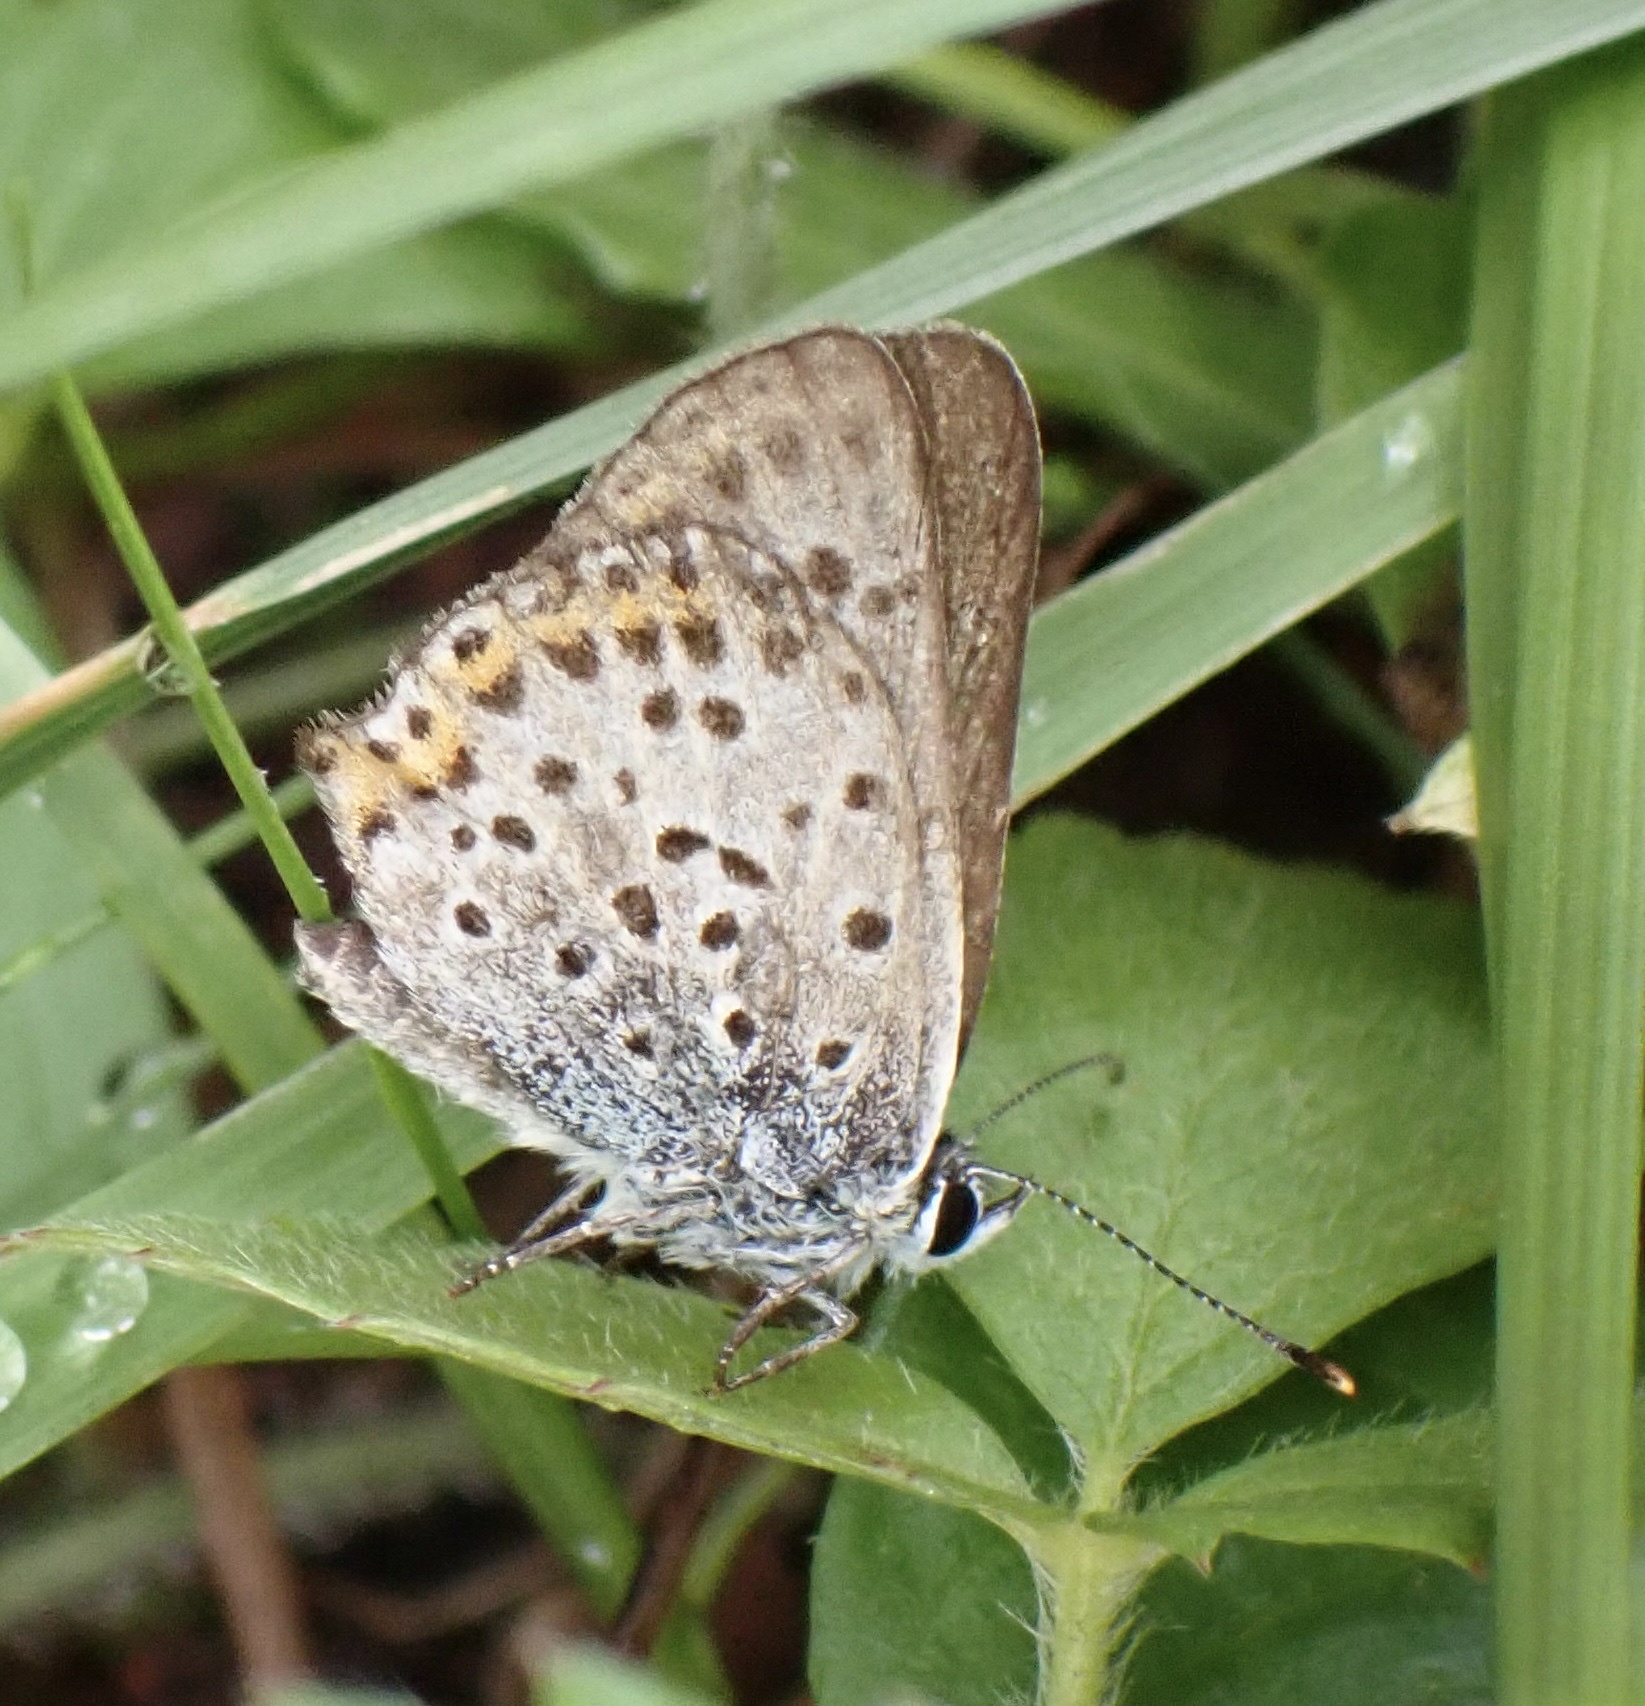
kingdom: Animalia
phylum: Arthropoda
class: Insecta
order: Lepidoptera
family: Lycaenidae
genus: Loweia
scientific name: Loweia tityrus
